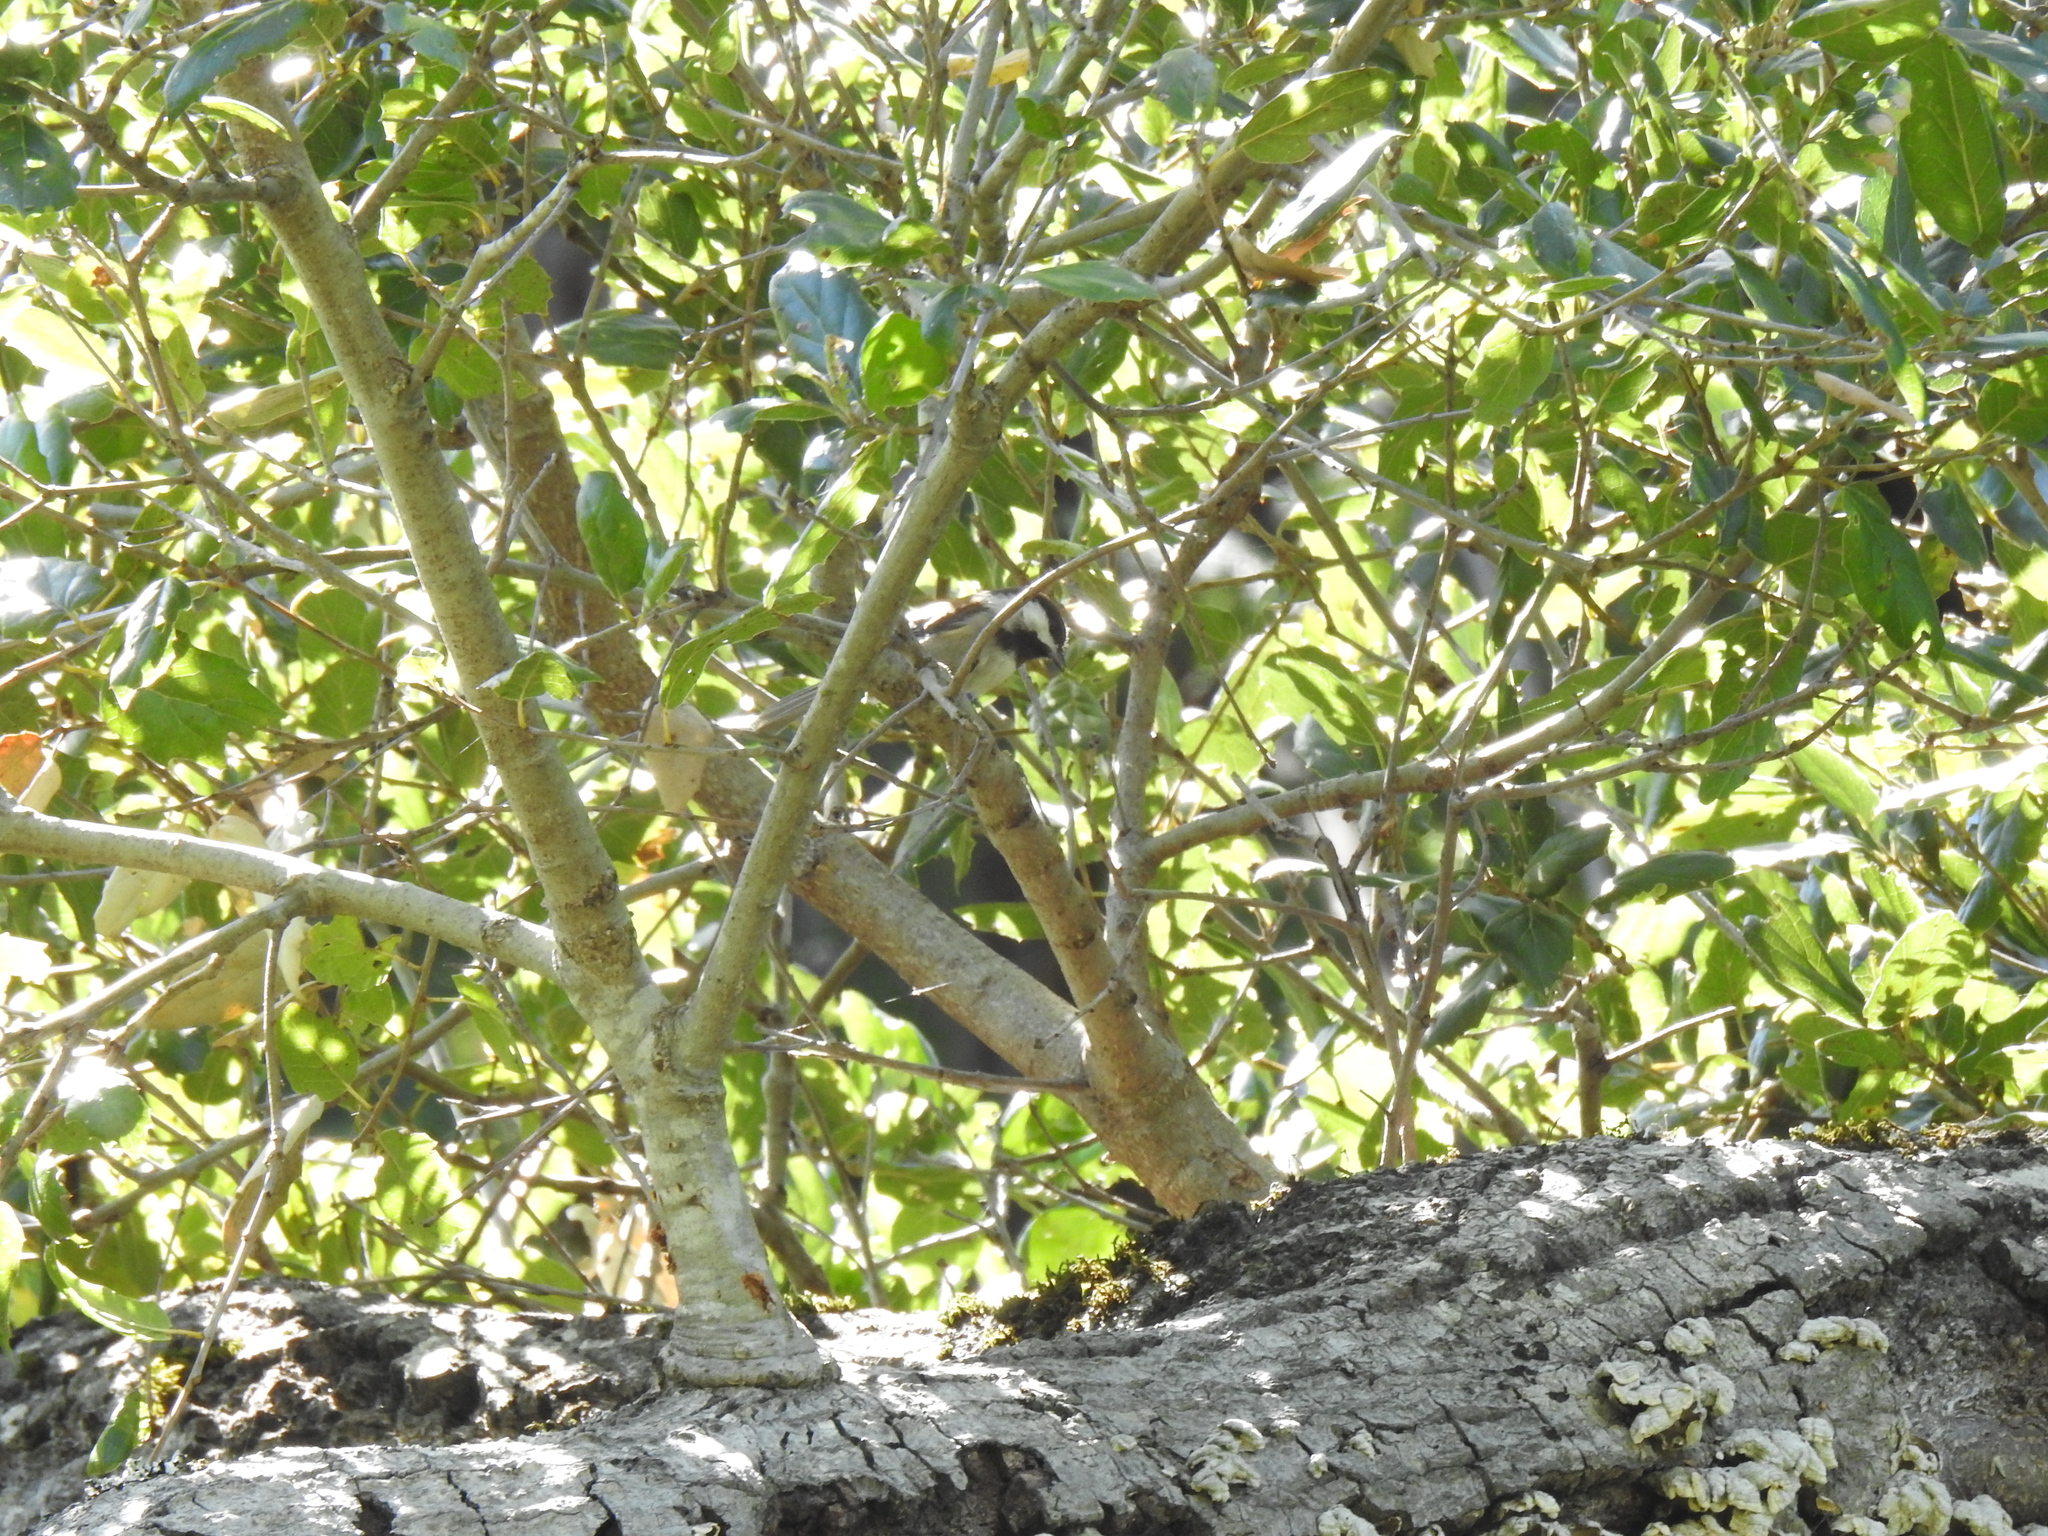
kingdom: Animalia
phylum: Chordata
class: Aves
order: Passeriformes
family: Paridae
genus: Poecile
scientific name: Poecile rufescens
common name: Chestnut-backed chickadee
